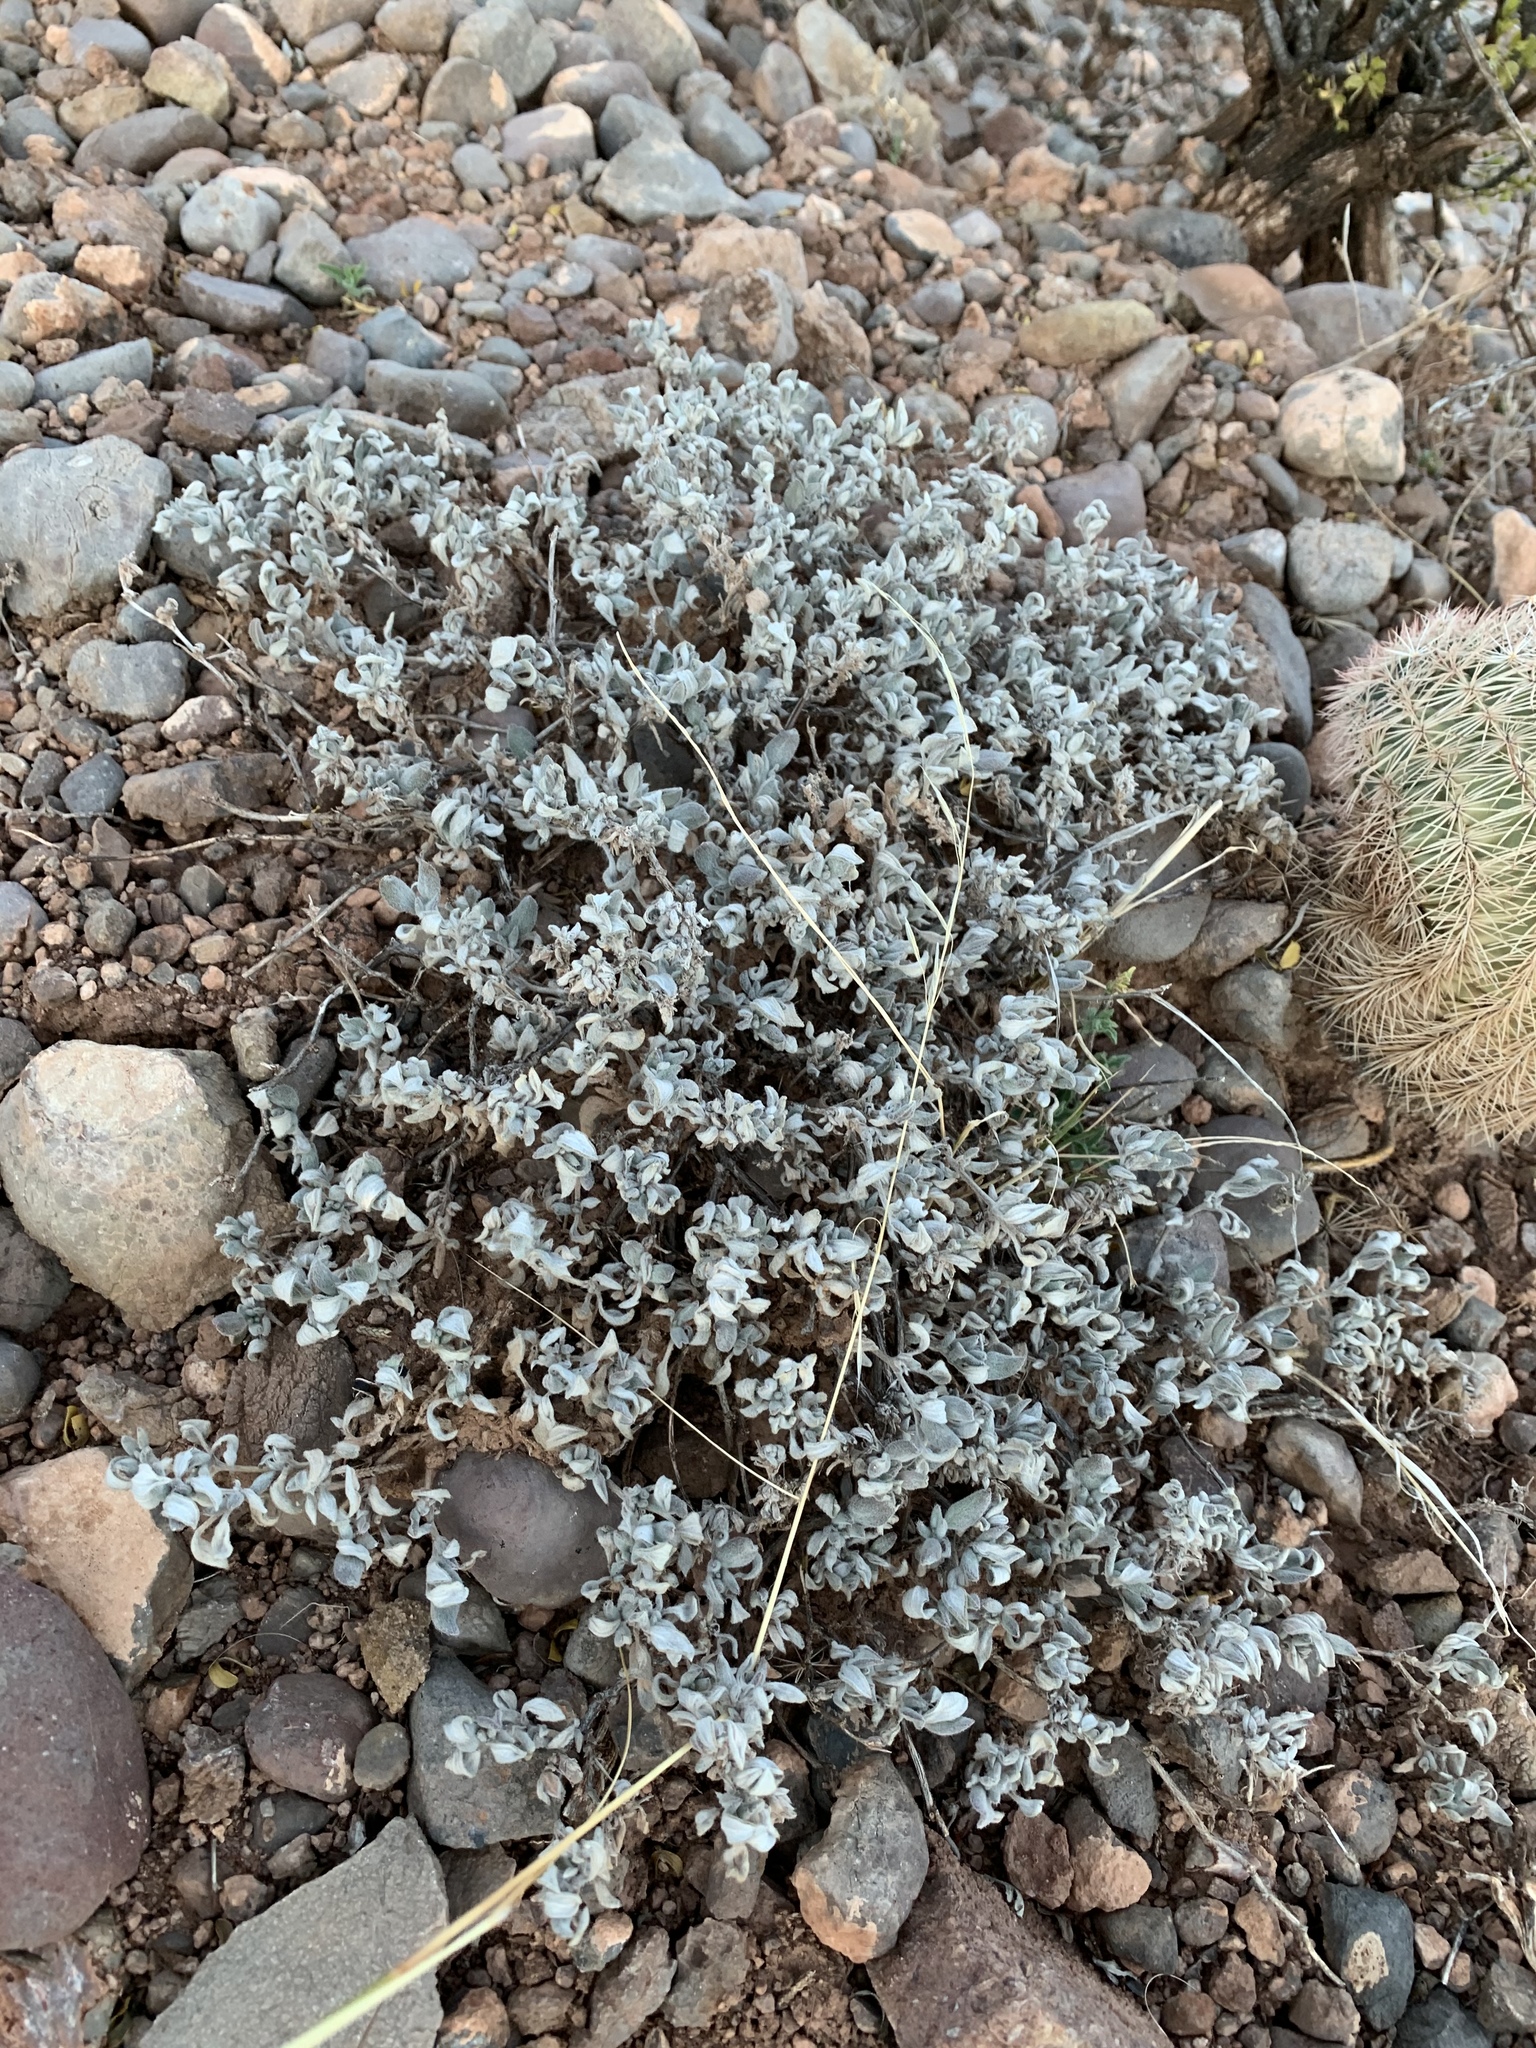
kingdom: Plantae
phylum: Tracheophyta
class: Magnoliopsida
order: Boraginales
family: Ehretiaceae
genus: Tiquilia
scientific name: Tiquilia canescens
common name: Hairy tiquilia
